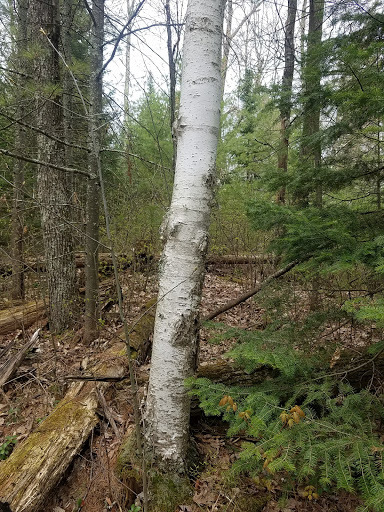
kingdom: Plantae
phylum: Tracheophyta
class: Magnoliopsida
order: Fagales
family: Betulaceae
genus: Betula
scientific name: Betula papyrifera
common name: Paper birch
